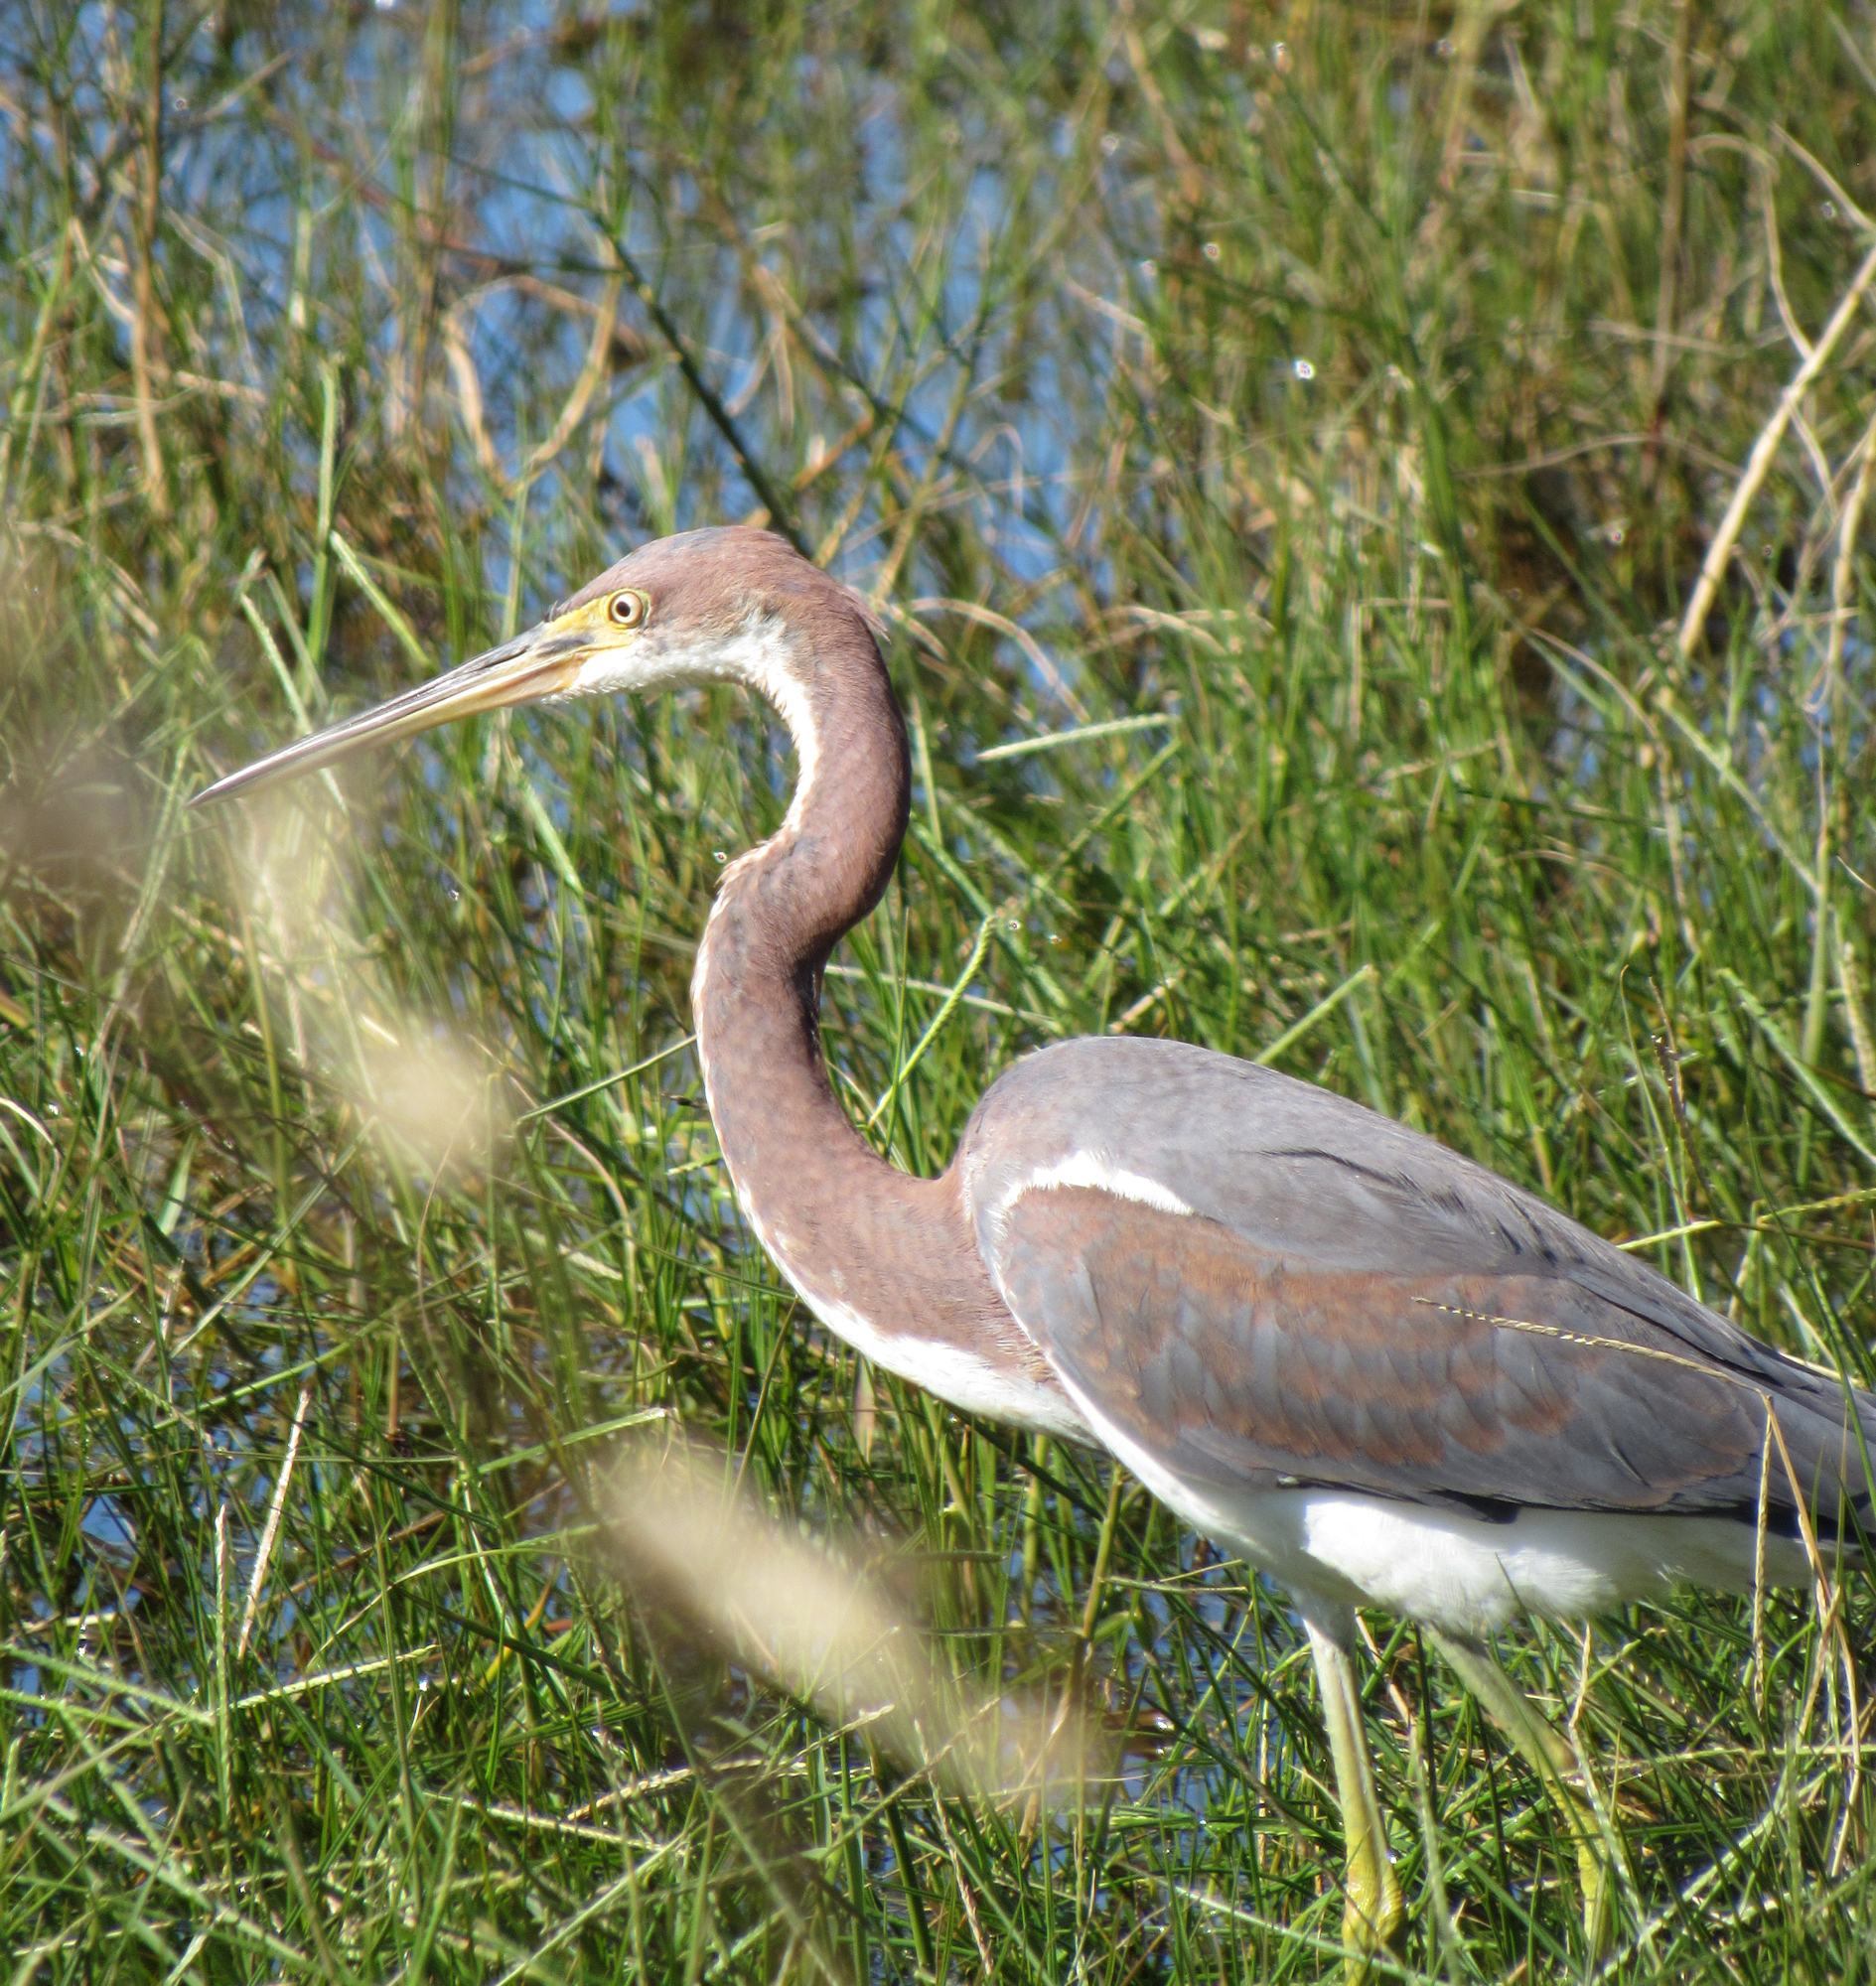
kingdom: Animalia
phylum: Chordata
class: Aves
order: Pelecaniformes
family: Ardeidae
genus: Egretta
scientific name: Egretta tricolor
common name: Tricolored heron
